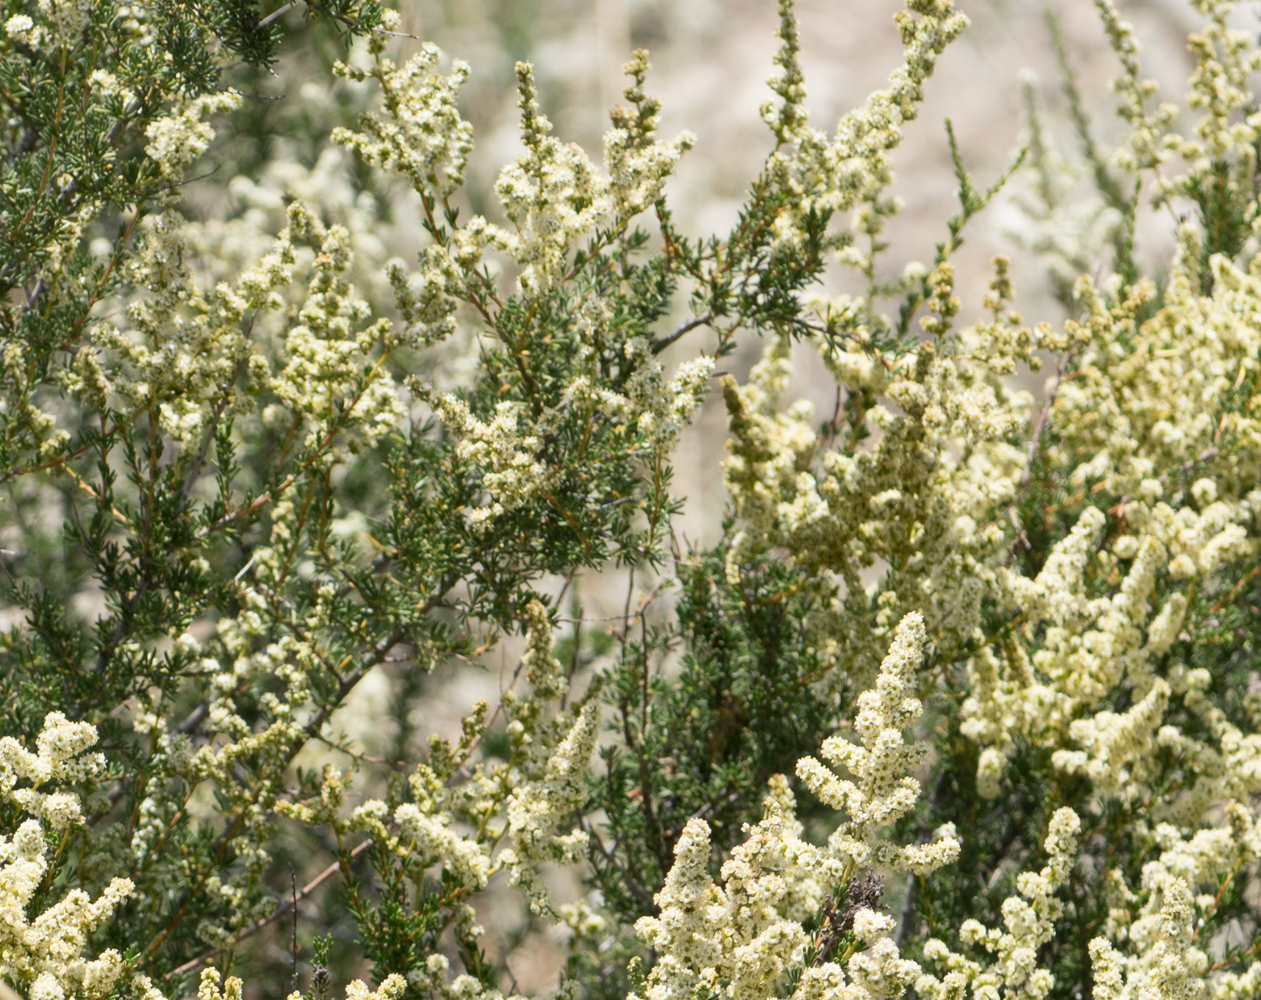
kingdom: Plantae
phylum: Tracheophyta
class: Magnoliopsida
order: Rosales
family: Rosaceae
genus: Adenostoma
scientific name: Adenostoma fasciculatum
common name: Chamise
